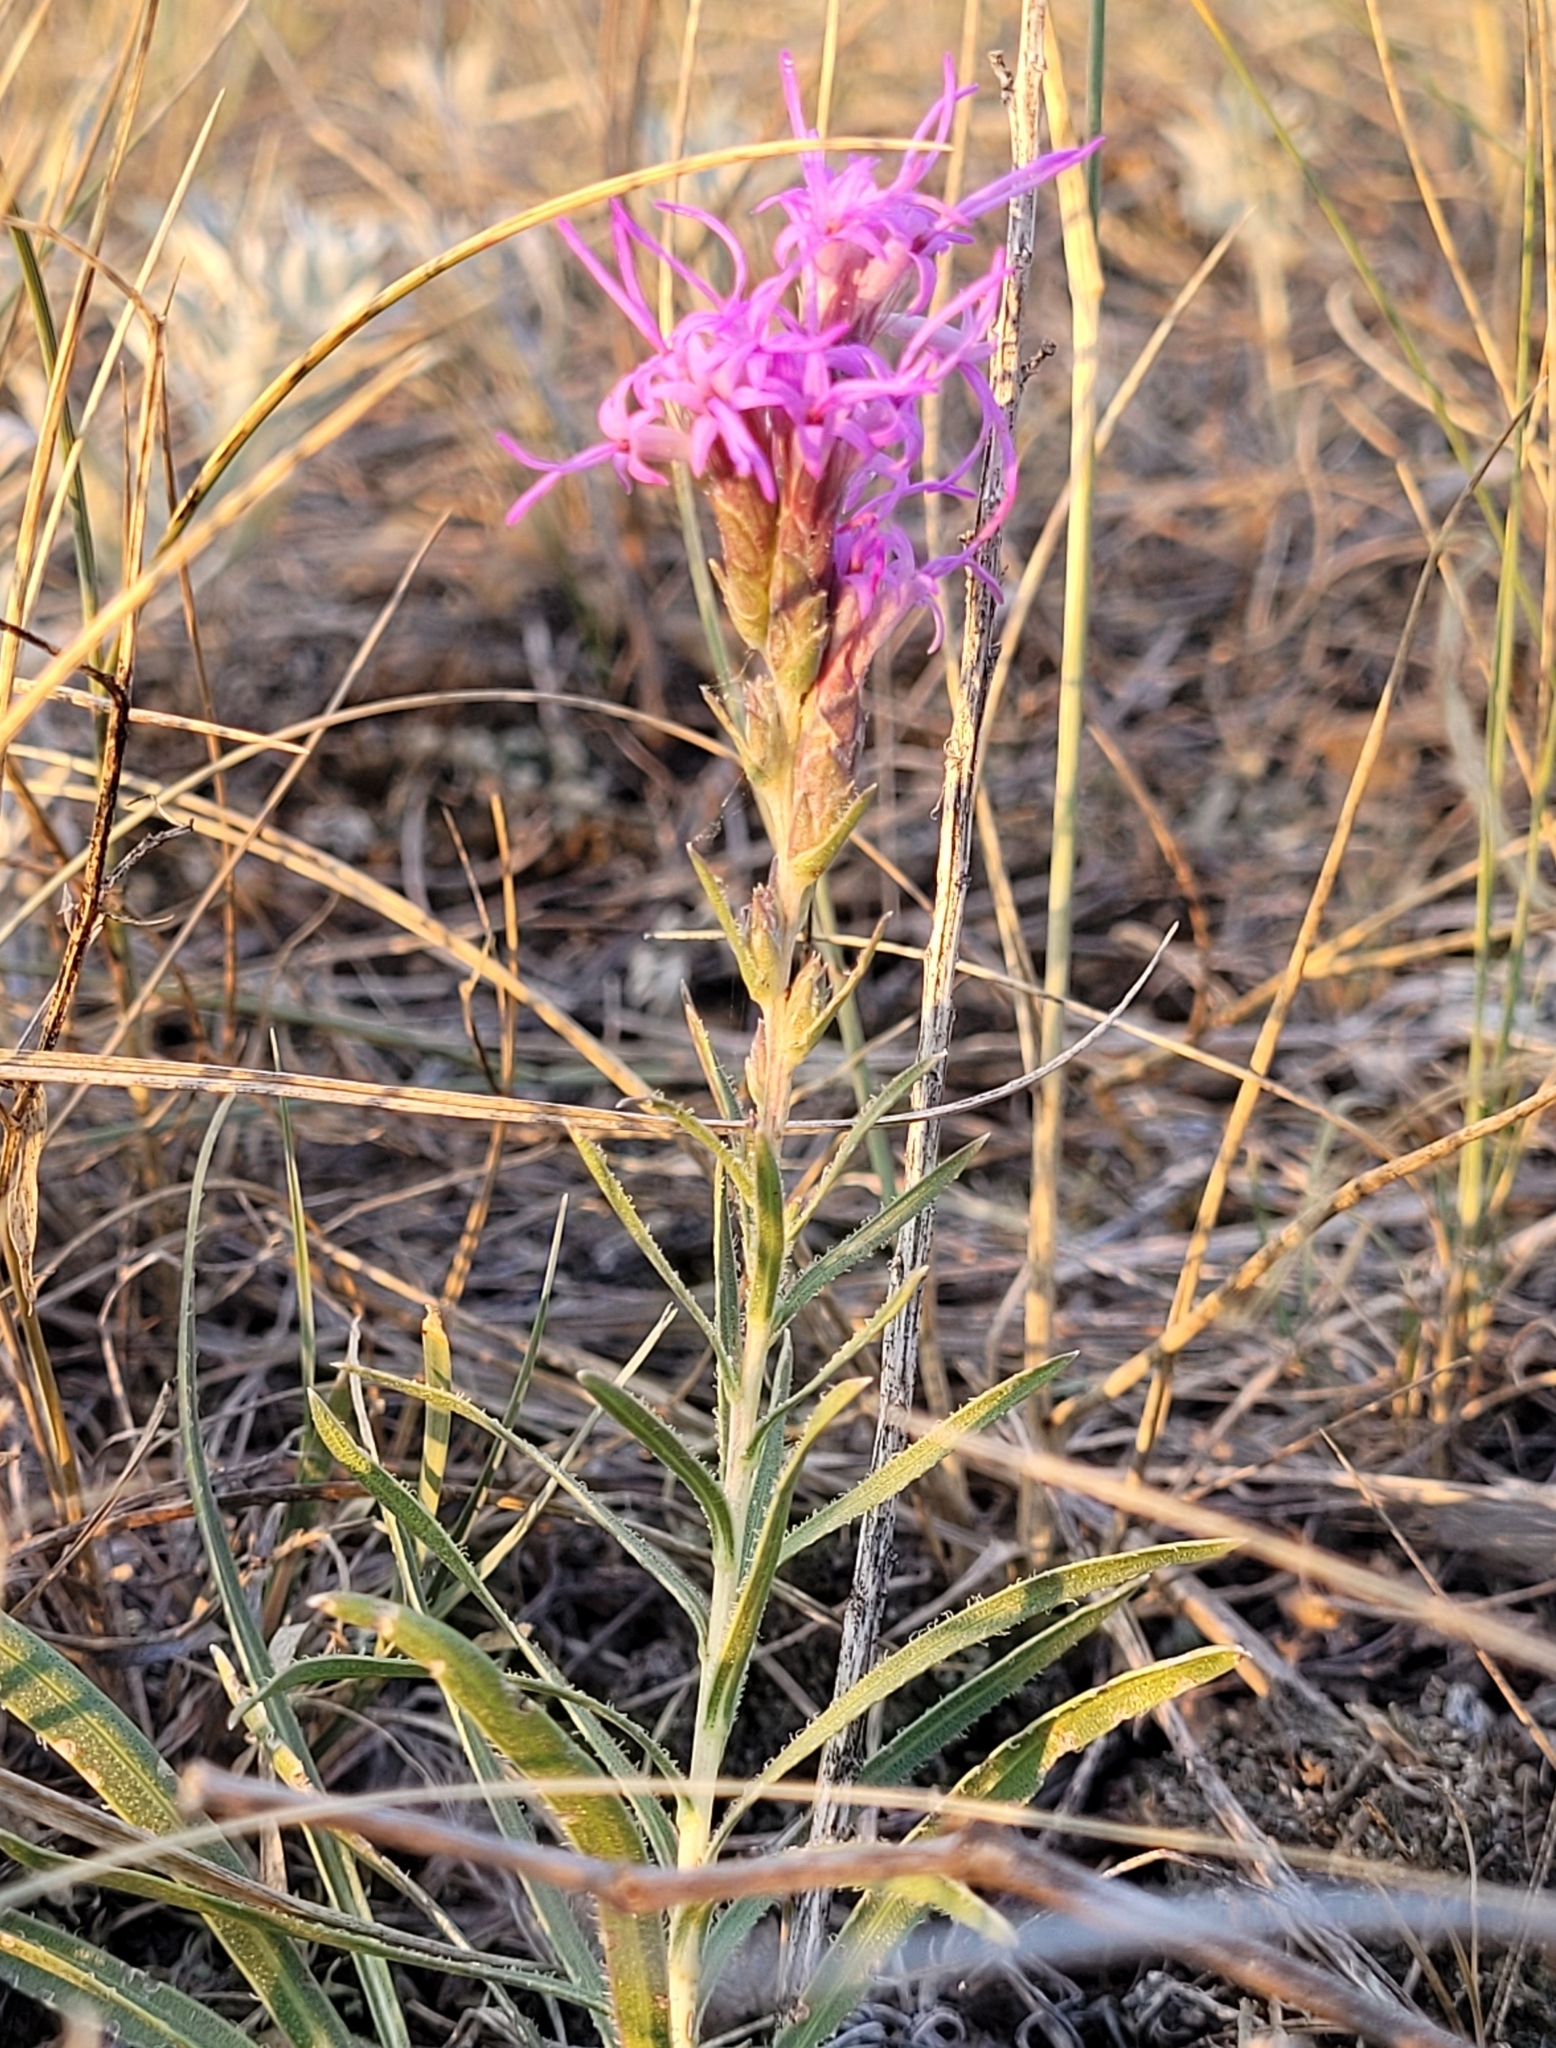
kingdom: Plantae
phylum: Tracheophyta
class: Magnoliopsida
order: Asterales
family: Asteraceae
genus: Liatris
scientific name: Liatris punctata
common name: Dotted gayfeather
